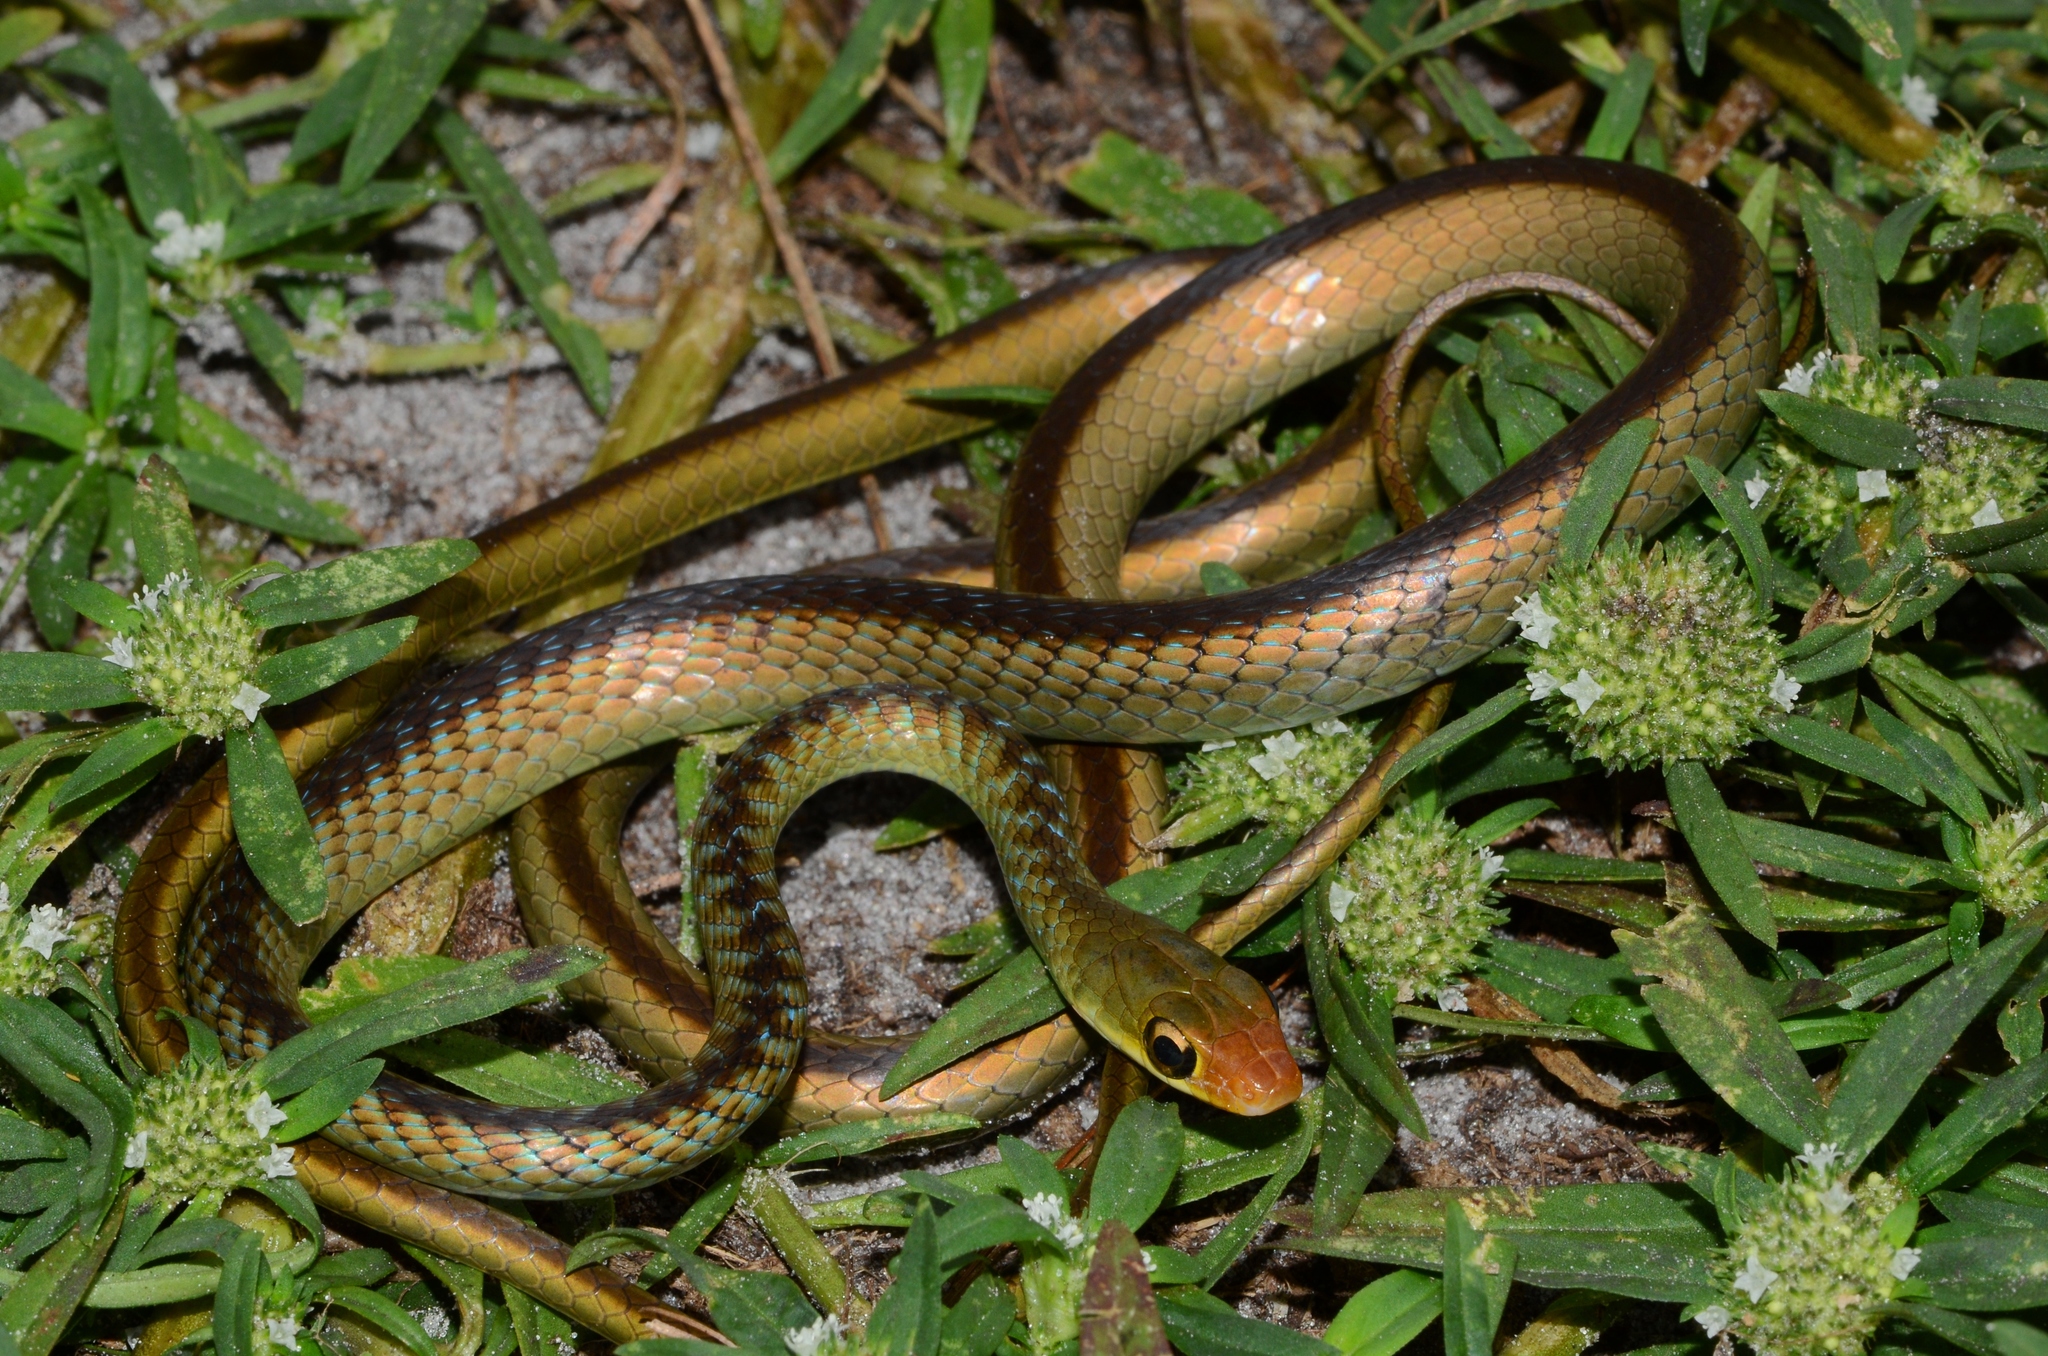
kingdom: Animalia
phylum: Chordata
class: Squamata
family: Colubridae
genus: Philothamnus
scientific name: Philothamnus dorsalis
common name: Striped green snake
